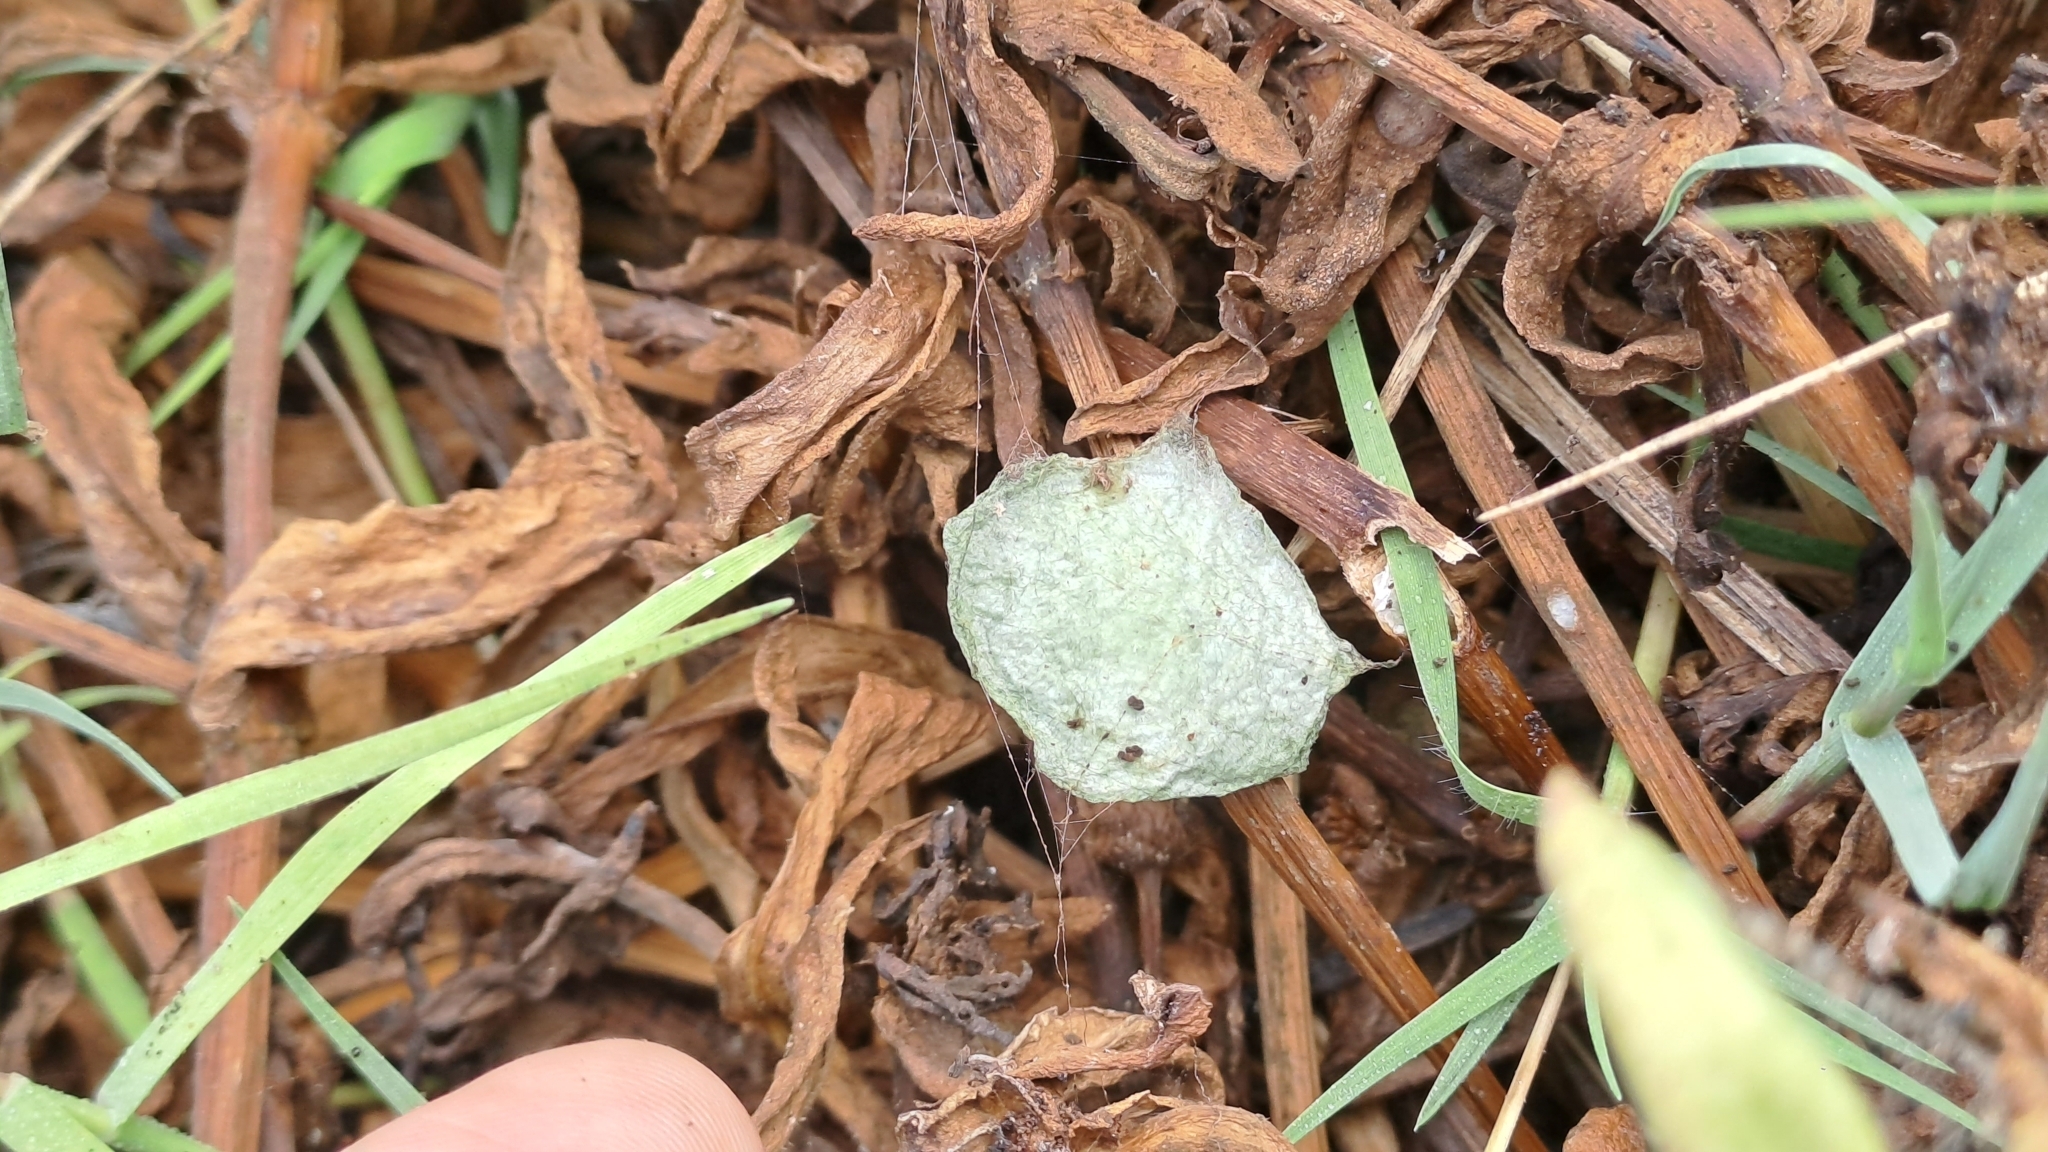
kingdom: Animalia
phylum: Arthropoda
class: Arachnida
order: Araneae
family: Araneidae
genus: Argiope
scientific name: Argiope argentata
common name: Orb weavers
